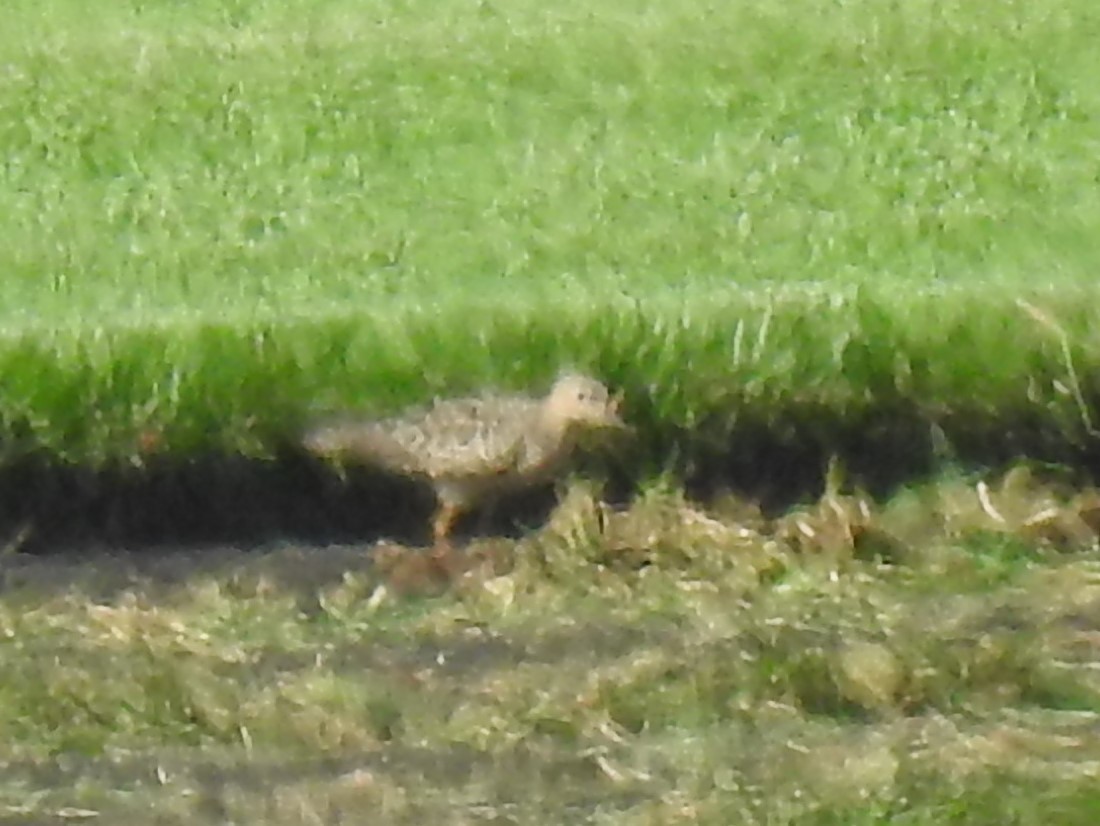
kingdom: Animalia
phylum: Chordata
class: Aves
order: Charadriiformes
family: Scolopacidae
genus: Calidris
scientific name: Calidris subruficollis
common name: Buff-breasted sandpiper
